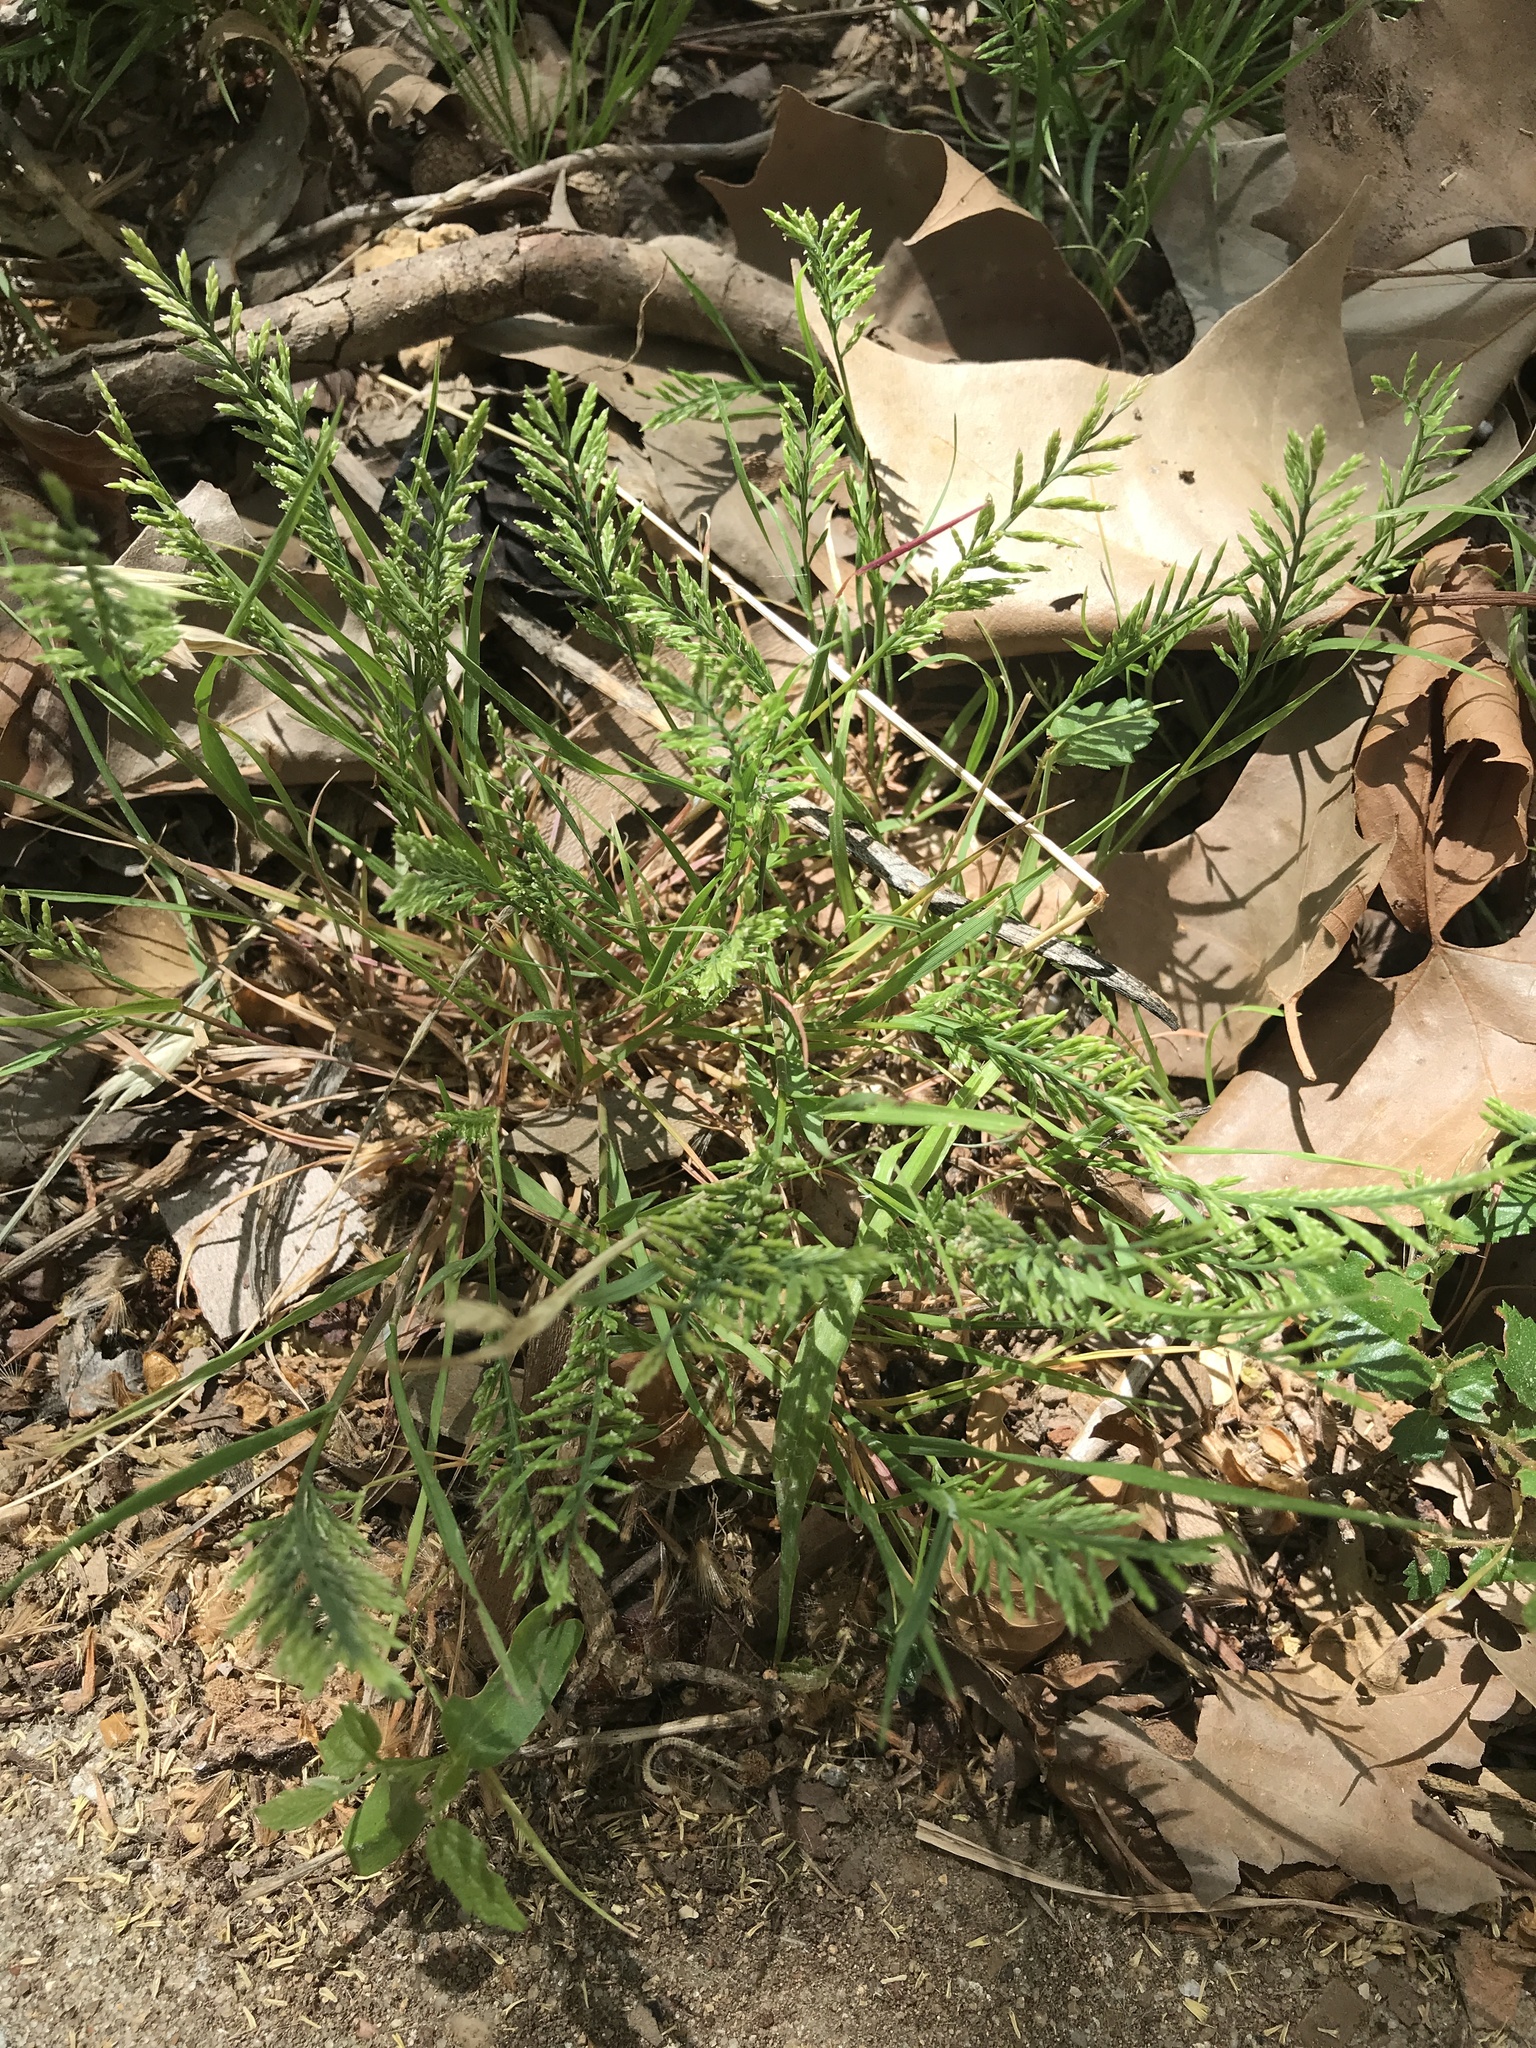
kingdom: Plantae
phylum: Tracheophyta
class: Liliopsida
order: Poales
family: Poaceae
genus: Catapodium
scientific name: Catapodium rigidum
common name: Fern-grass
